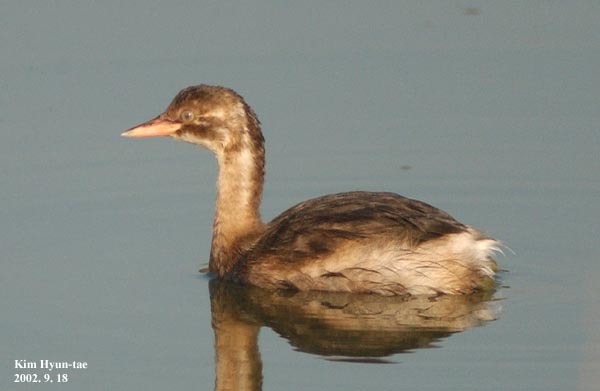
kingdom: Animalia
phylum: Chordata
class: Aves
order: Podicipediformes
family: Podicipedidae
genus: Tachybaptus
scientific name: Tachybaptus ruficollis
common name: Little grebe
